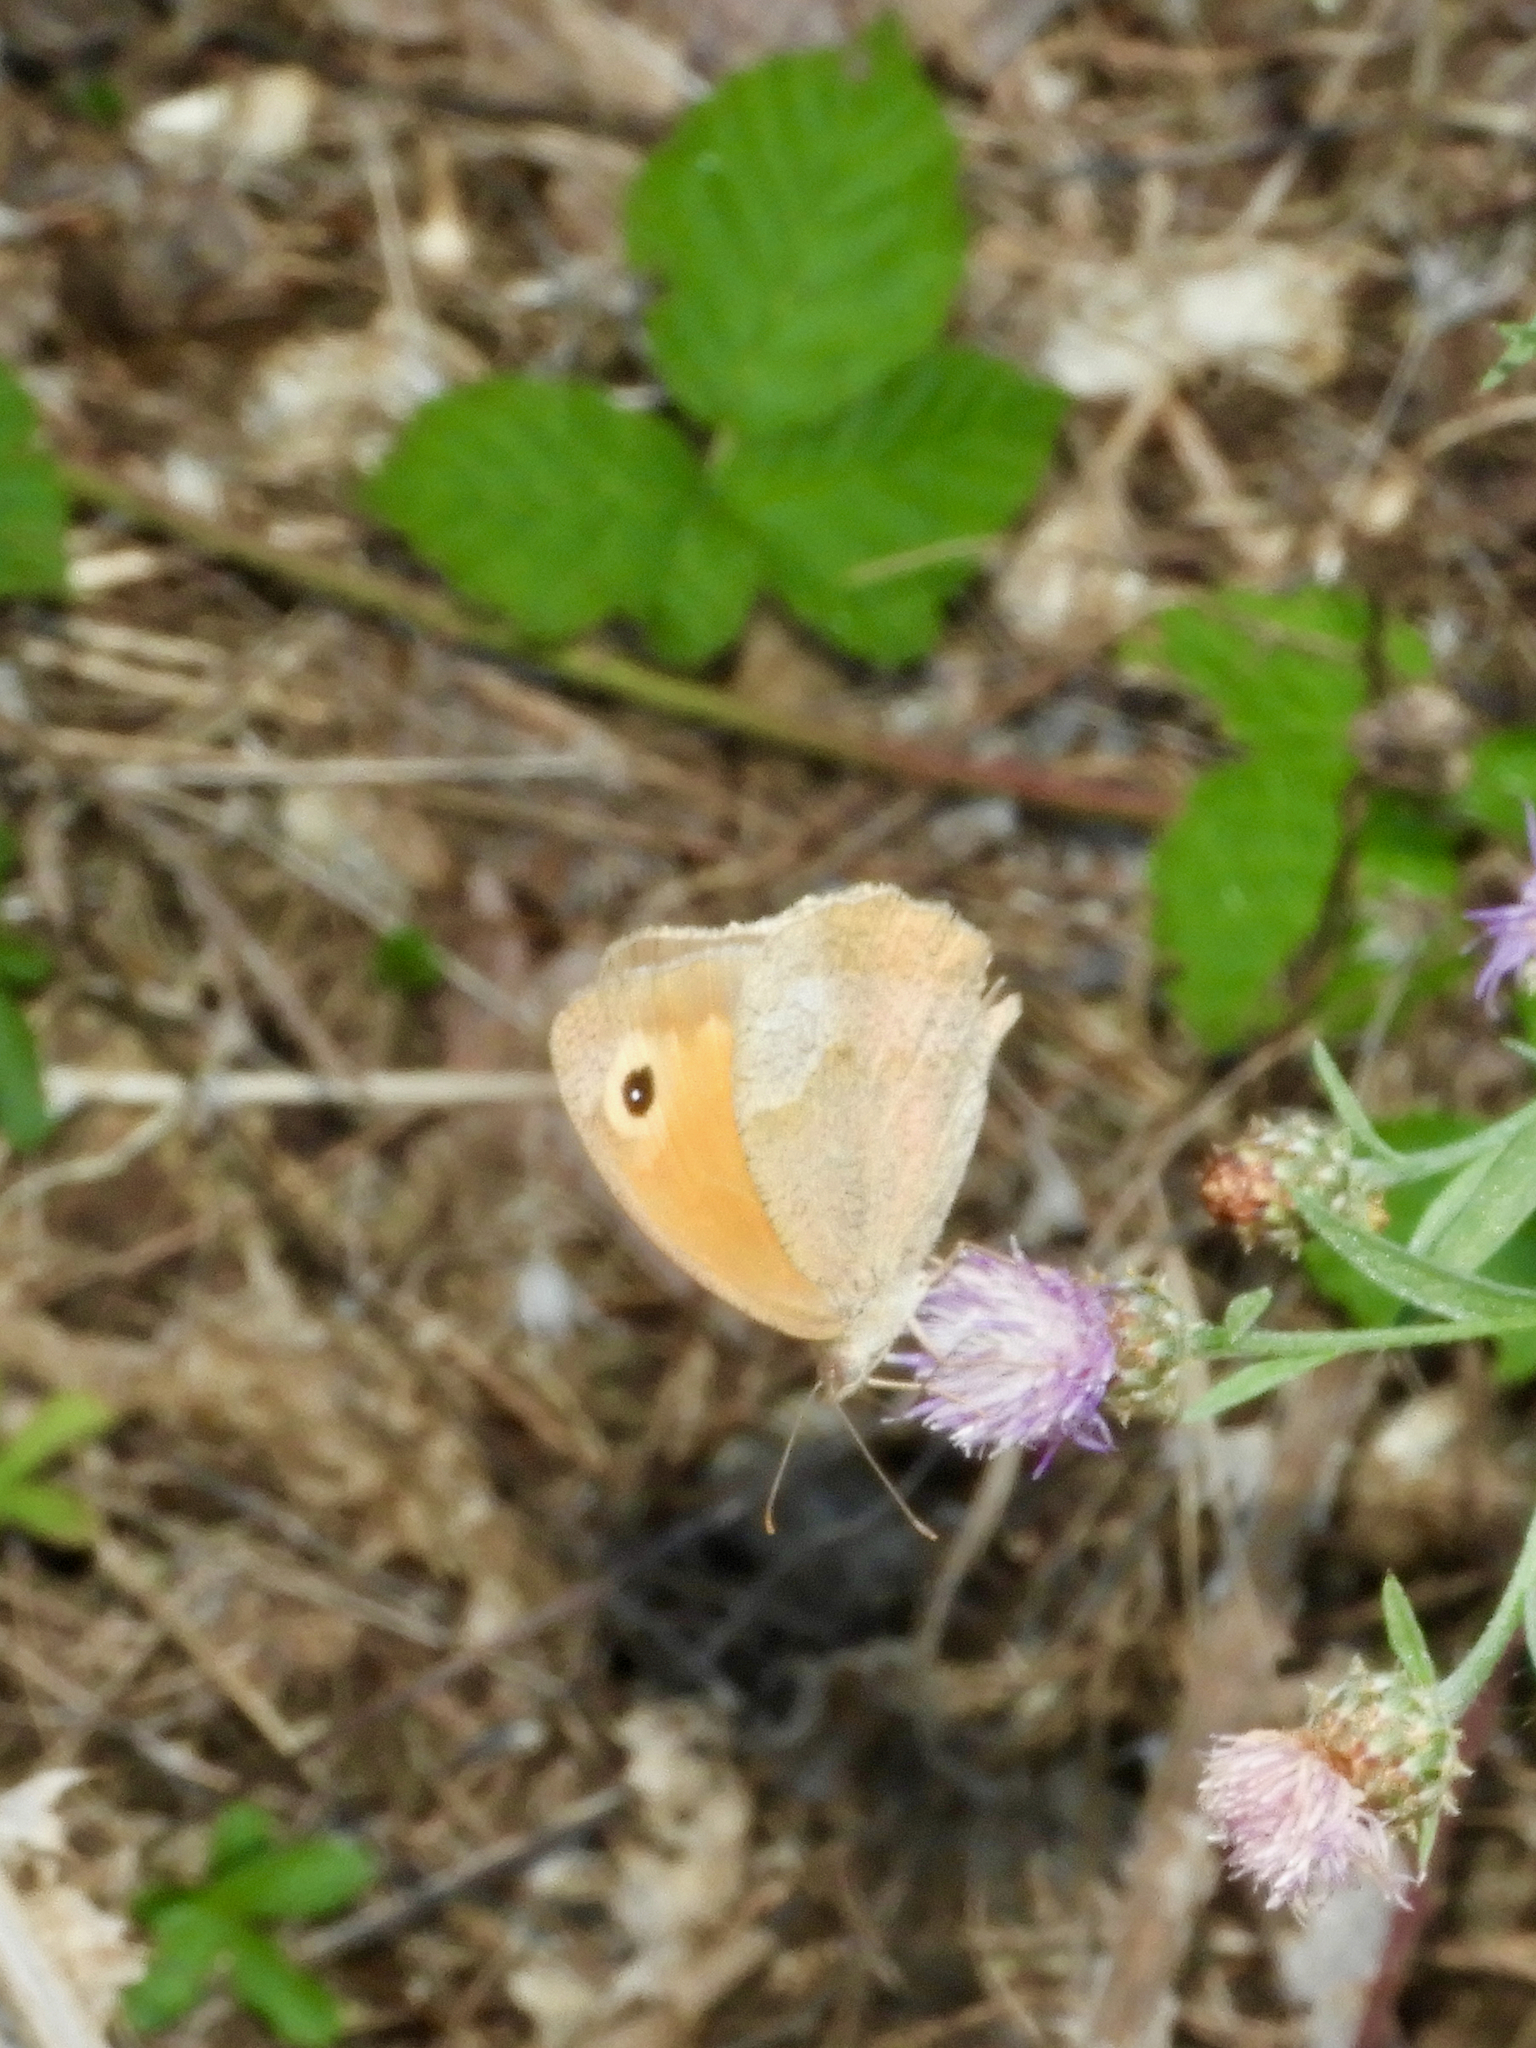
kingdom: Animalia
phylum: Arthropoda
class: Insecta
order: Lepidoptera
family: Nymphalidae
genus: Maniola
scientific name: Maniola jurtina
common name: Meadow brown
